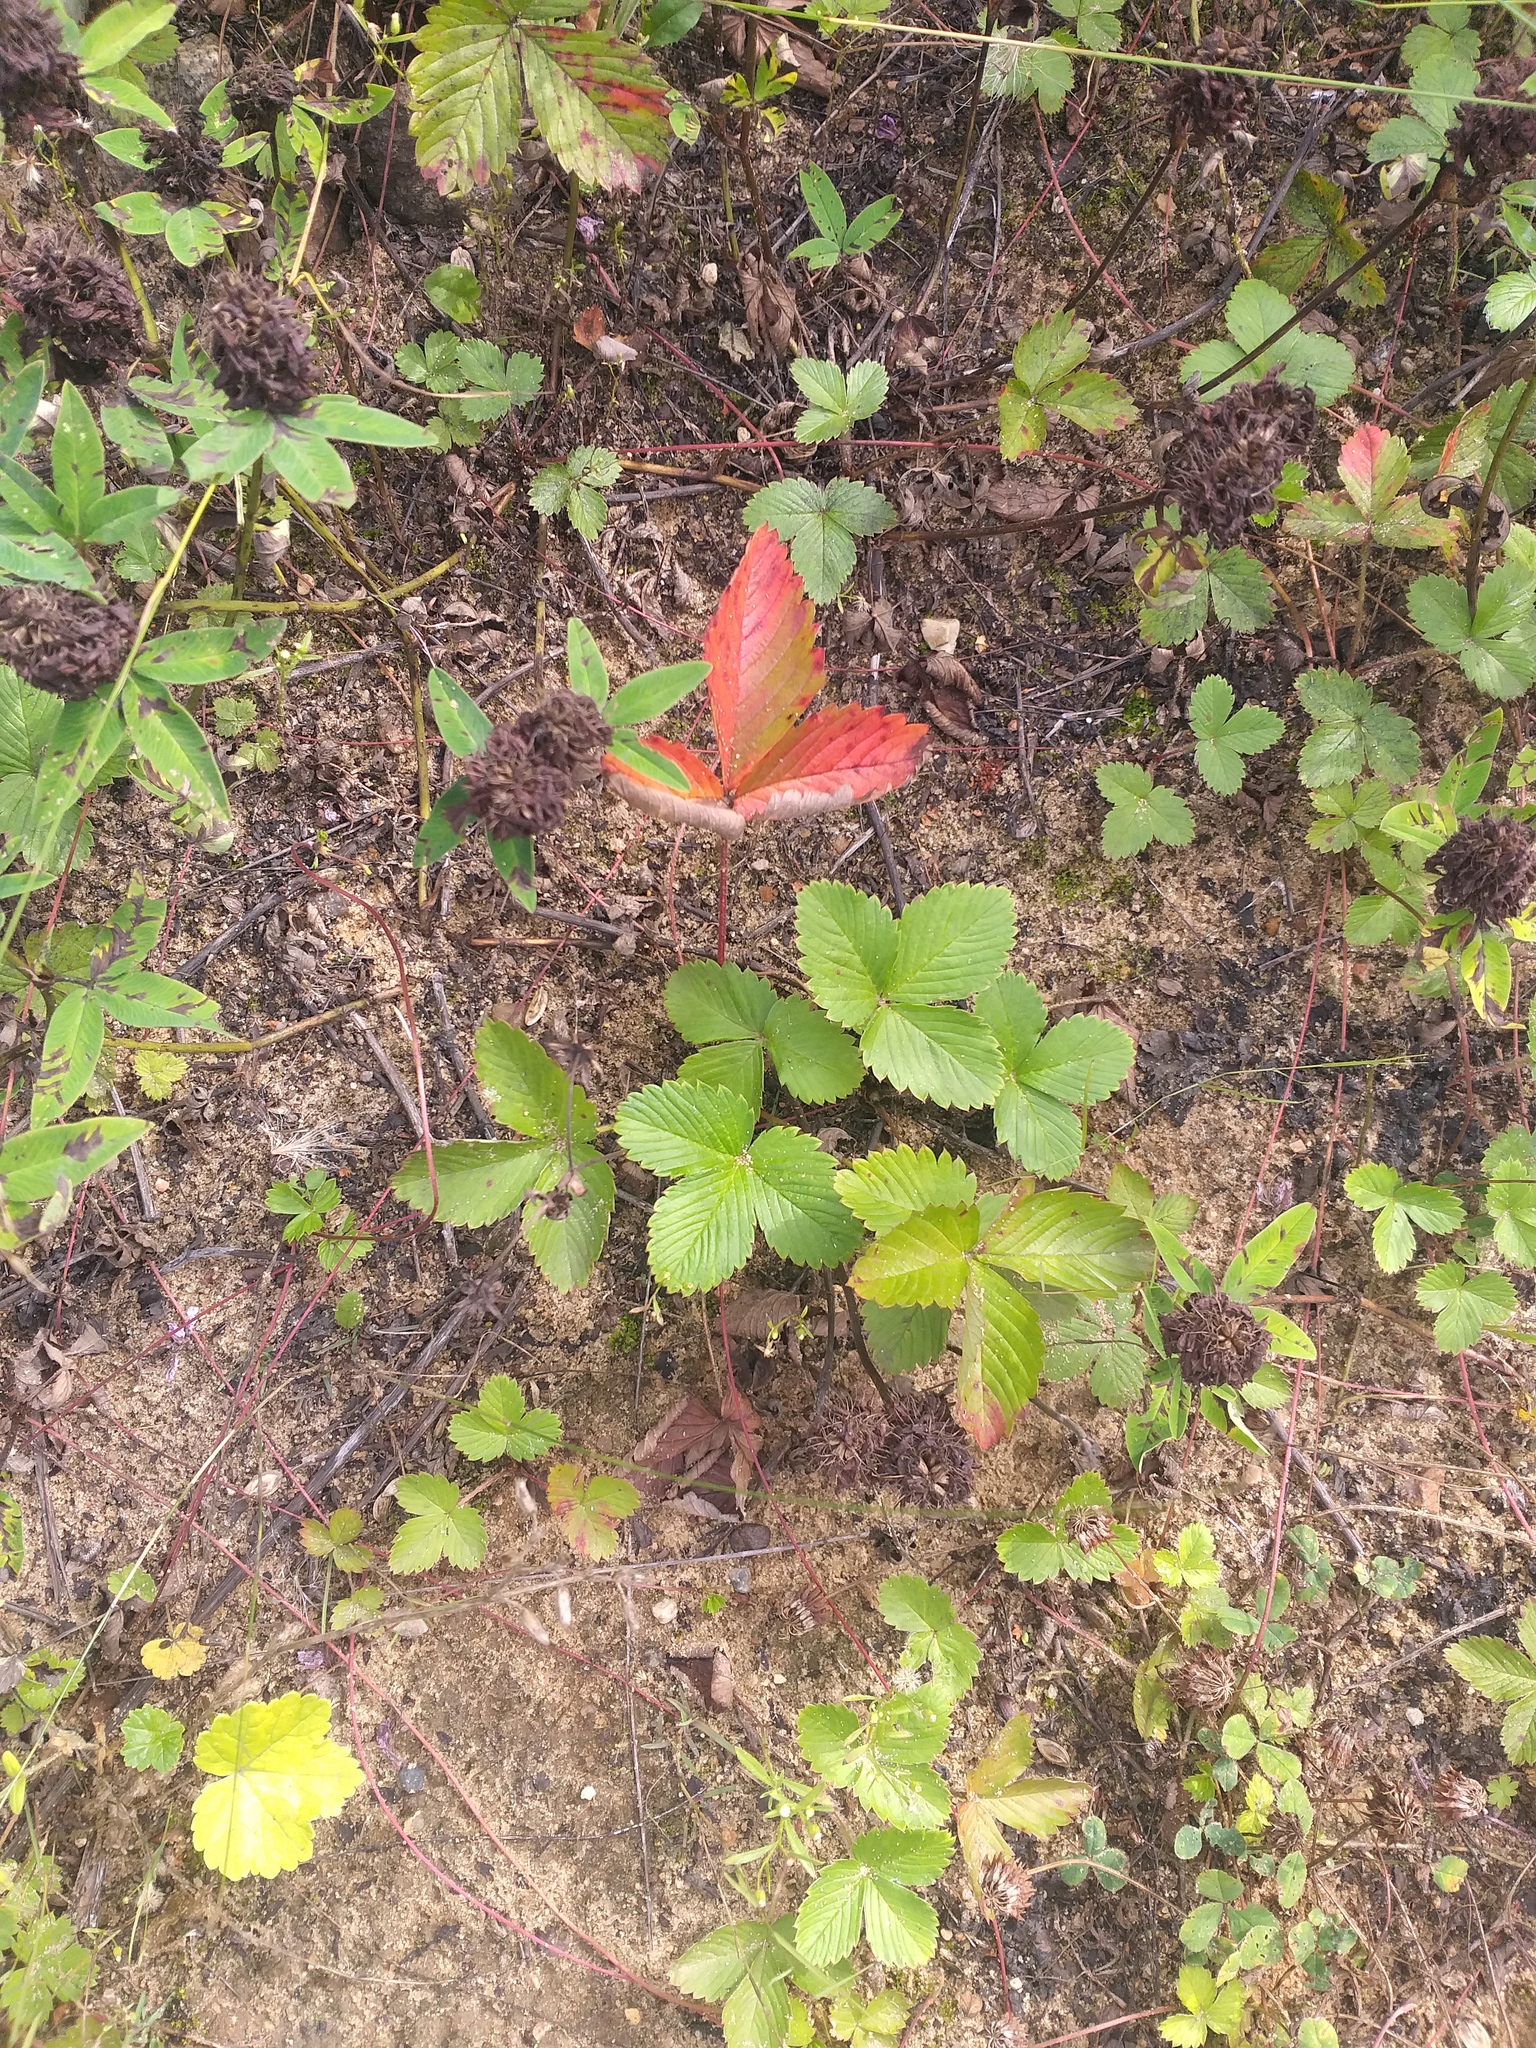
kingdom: Plantae
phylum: Tracheophyta
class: Magnoliopsida
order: Rosales
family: Rosaceae
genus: Fragaria
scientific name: Fragaria vesca
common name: Wild strawberry
